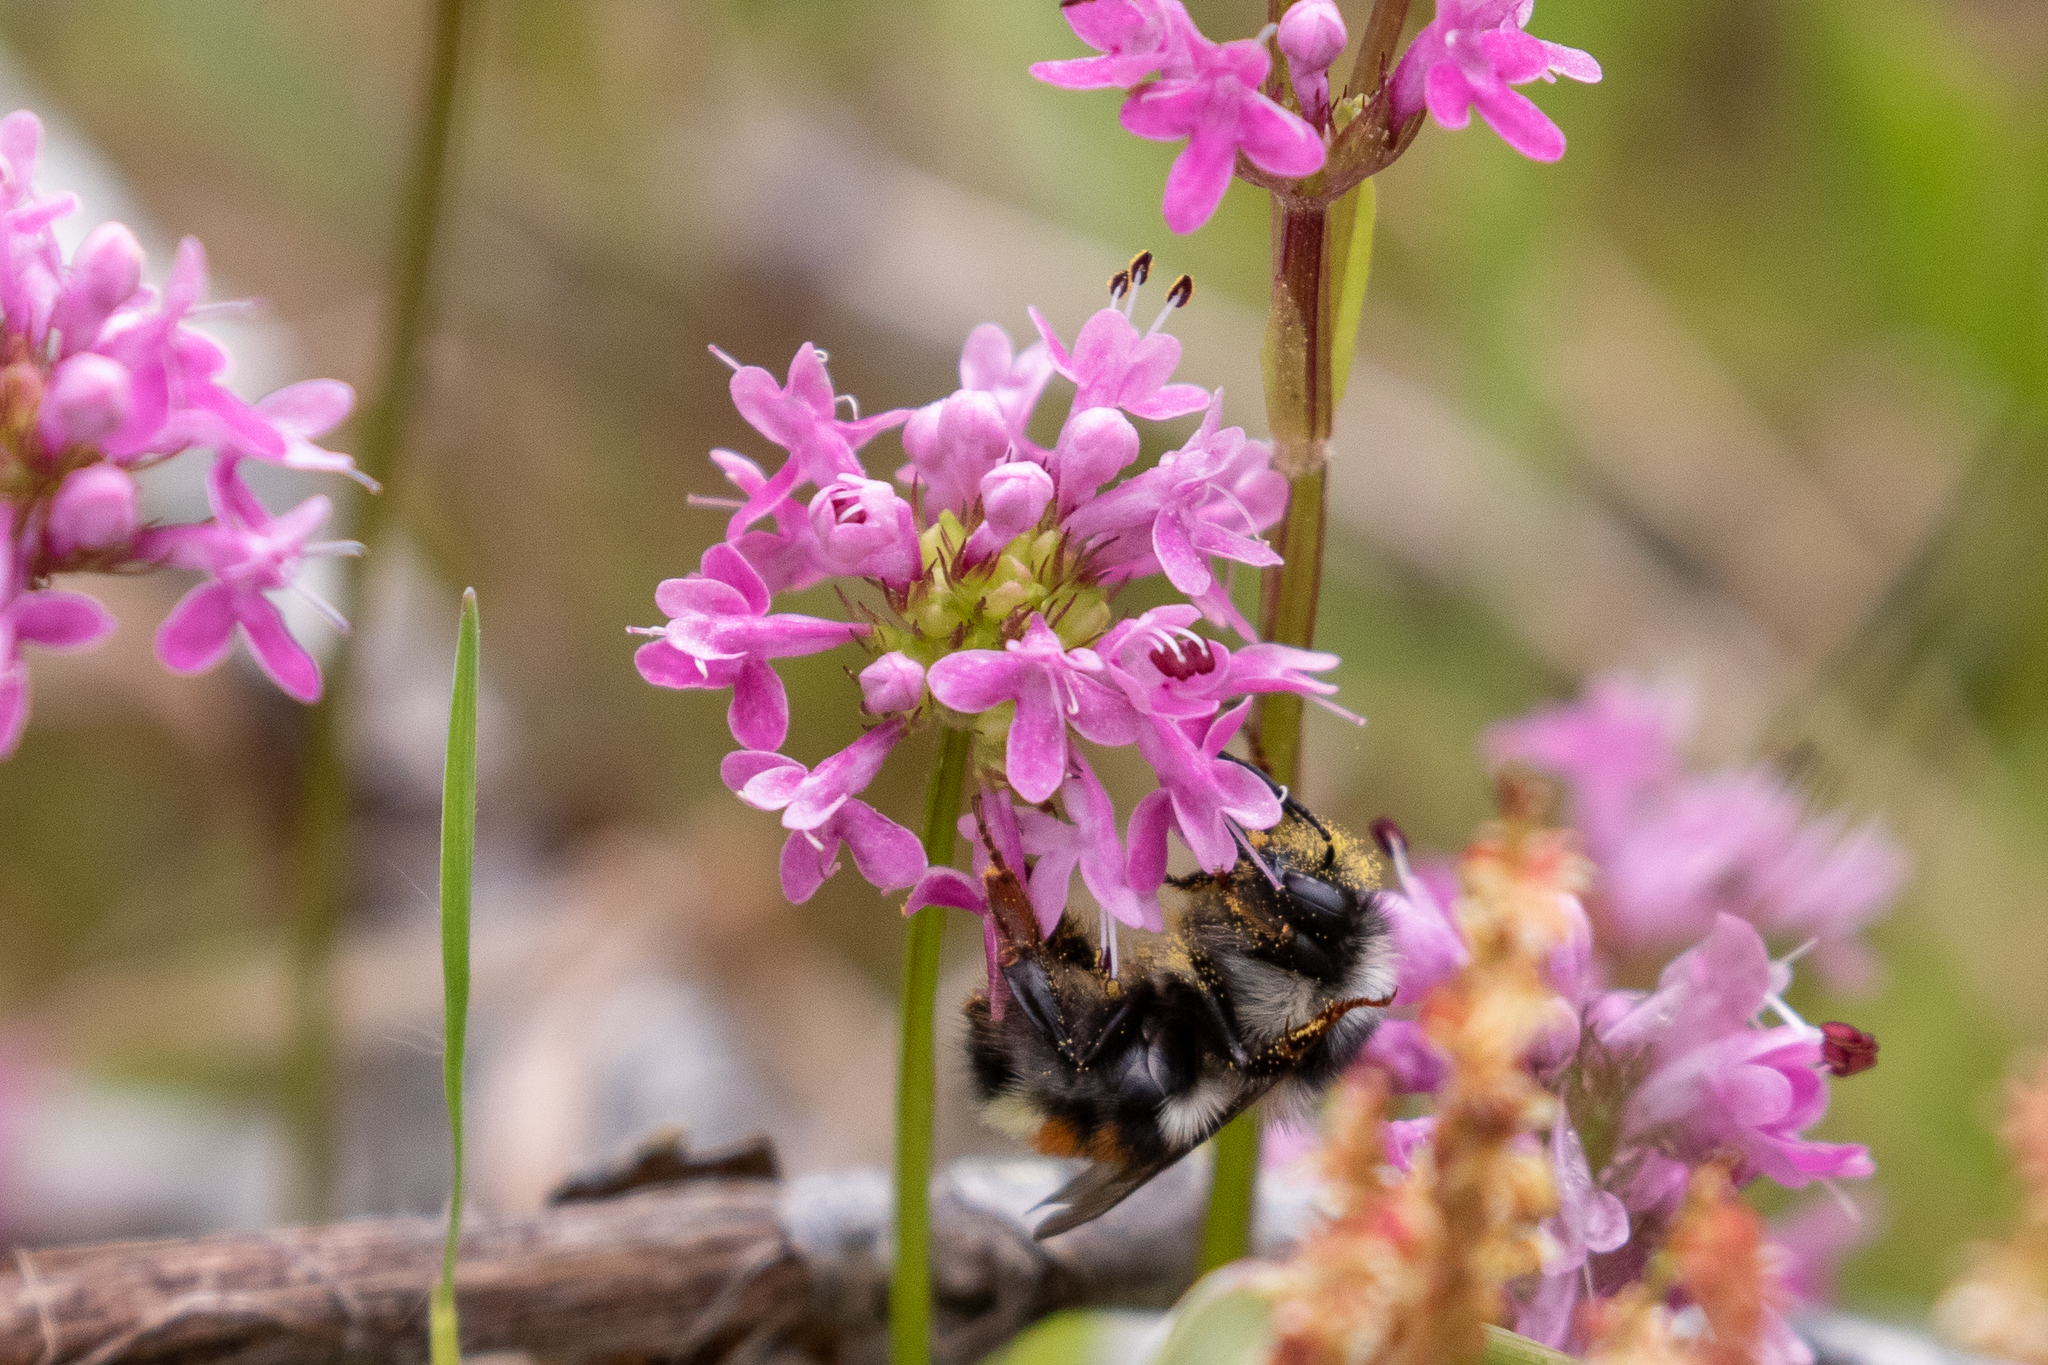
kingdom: Animalia
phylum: Arthropoda
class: Insecta
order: Hymenoptera
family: Apidae
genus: Bombus
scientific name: Bombus vancouverensis
